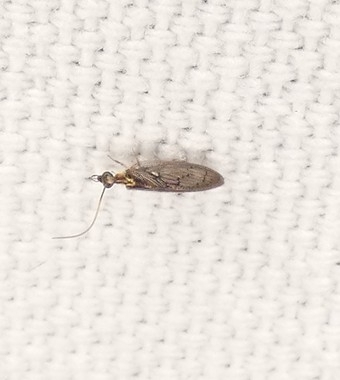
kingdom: Animalia
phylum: Arthropoda
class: Insecta
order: Neuroptera
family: Hemerobiidae
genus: Sympherobius
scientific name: Sympherobius occidentalis
